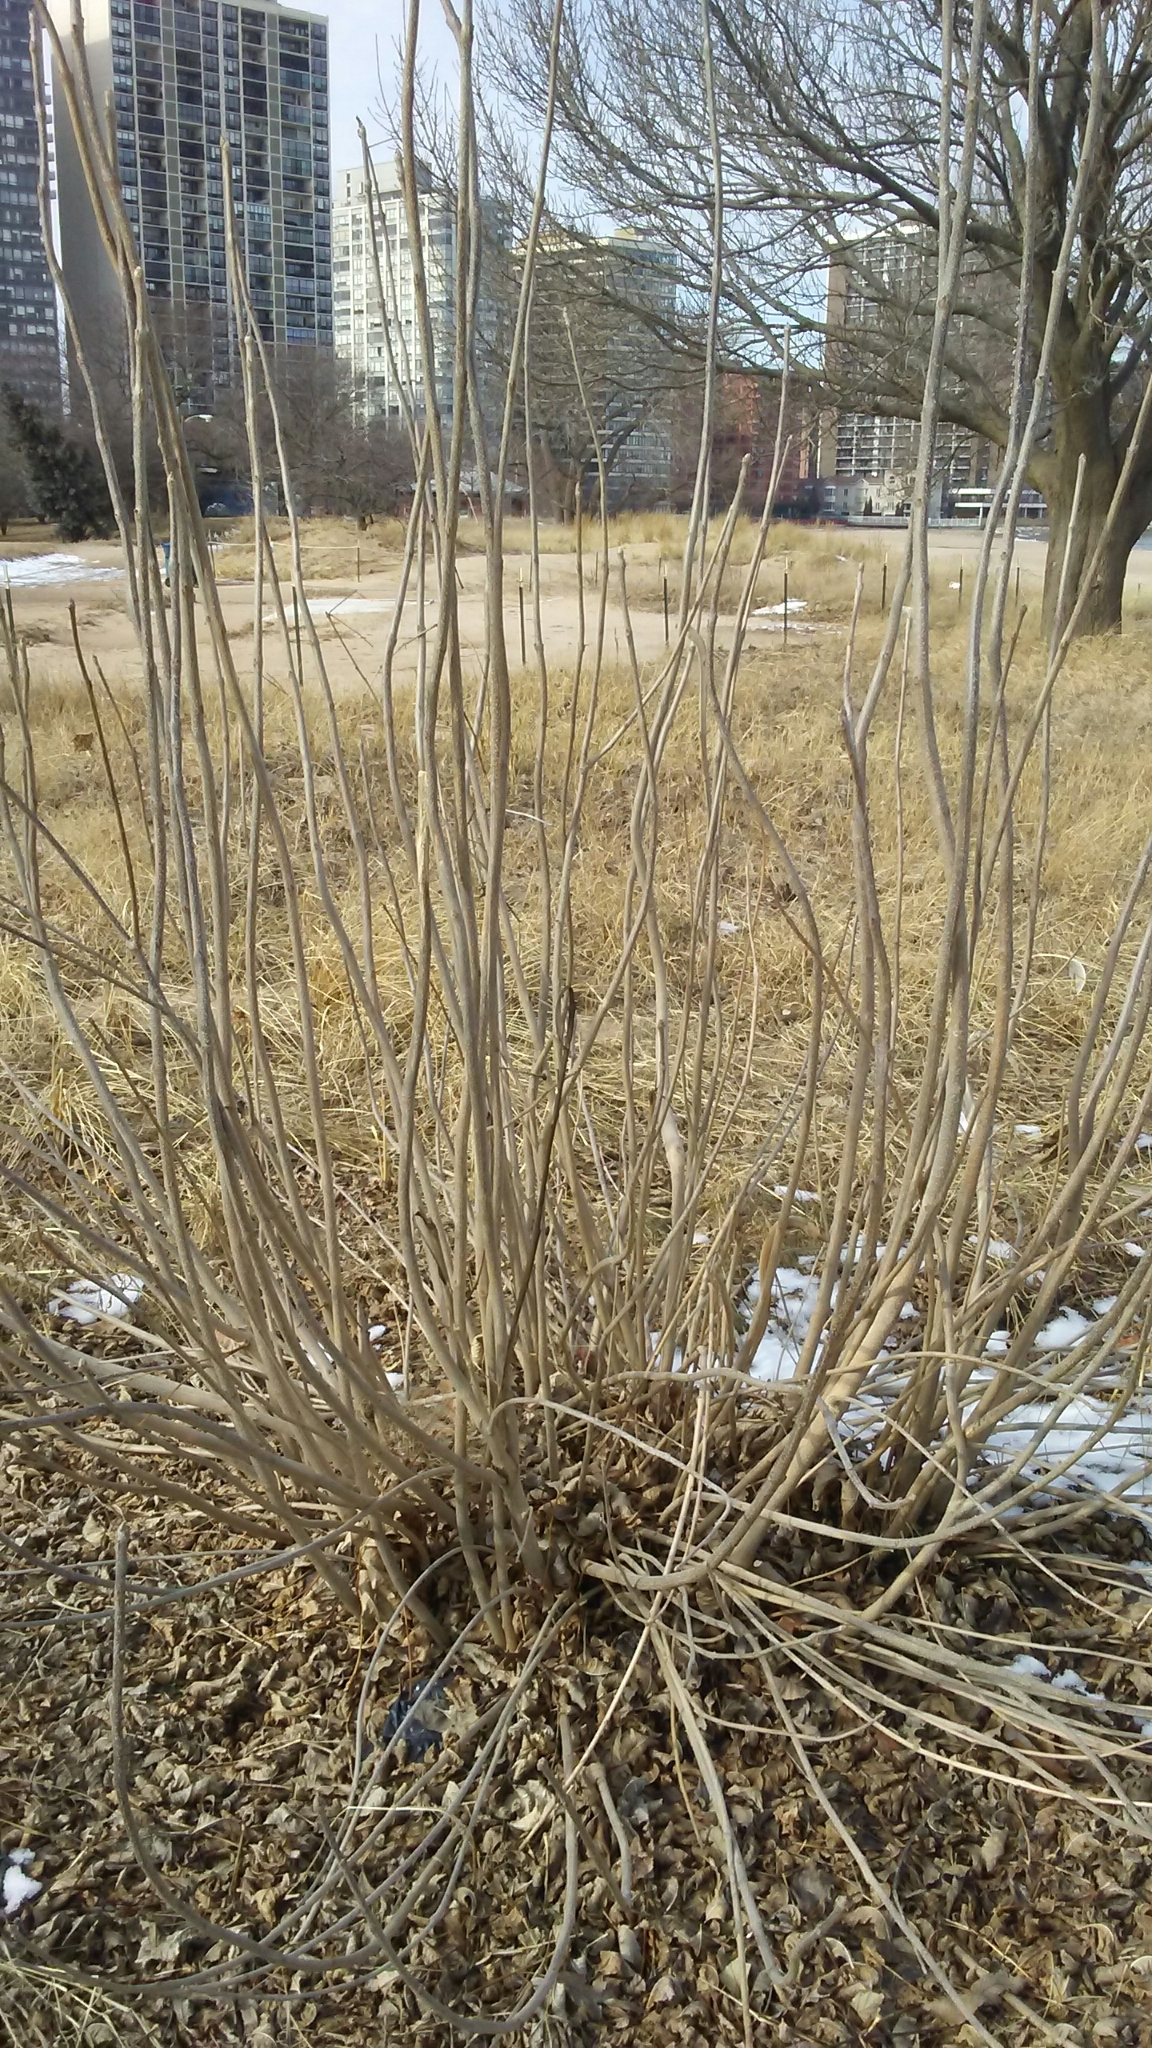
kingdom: Plantae
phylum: Tracheophyta
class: Magnoliopsida
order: Lamiales
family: Oleaceae
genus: Fraxinus
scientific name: Fraxinus pennsylvanica
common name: Green ash
